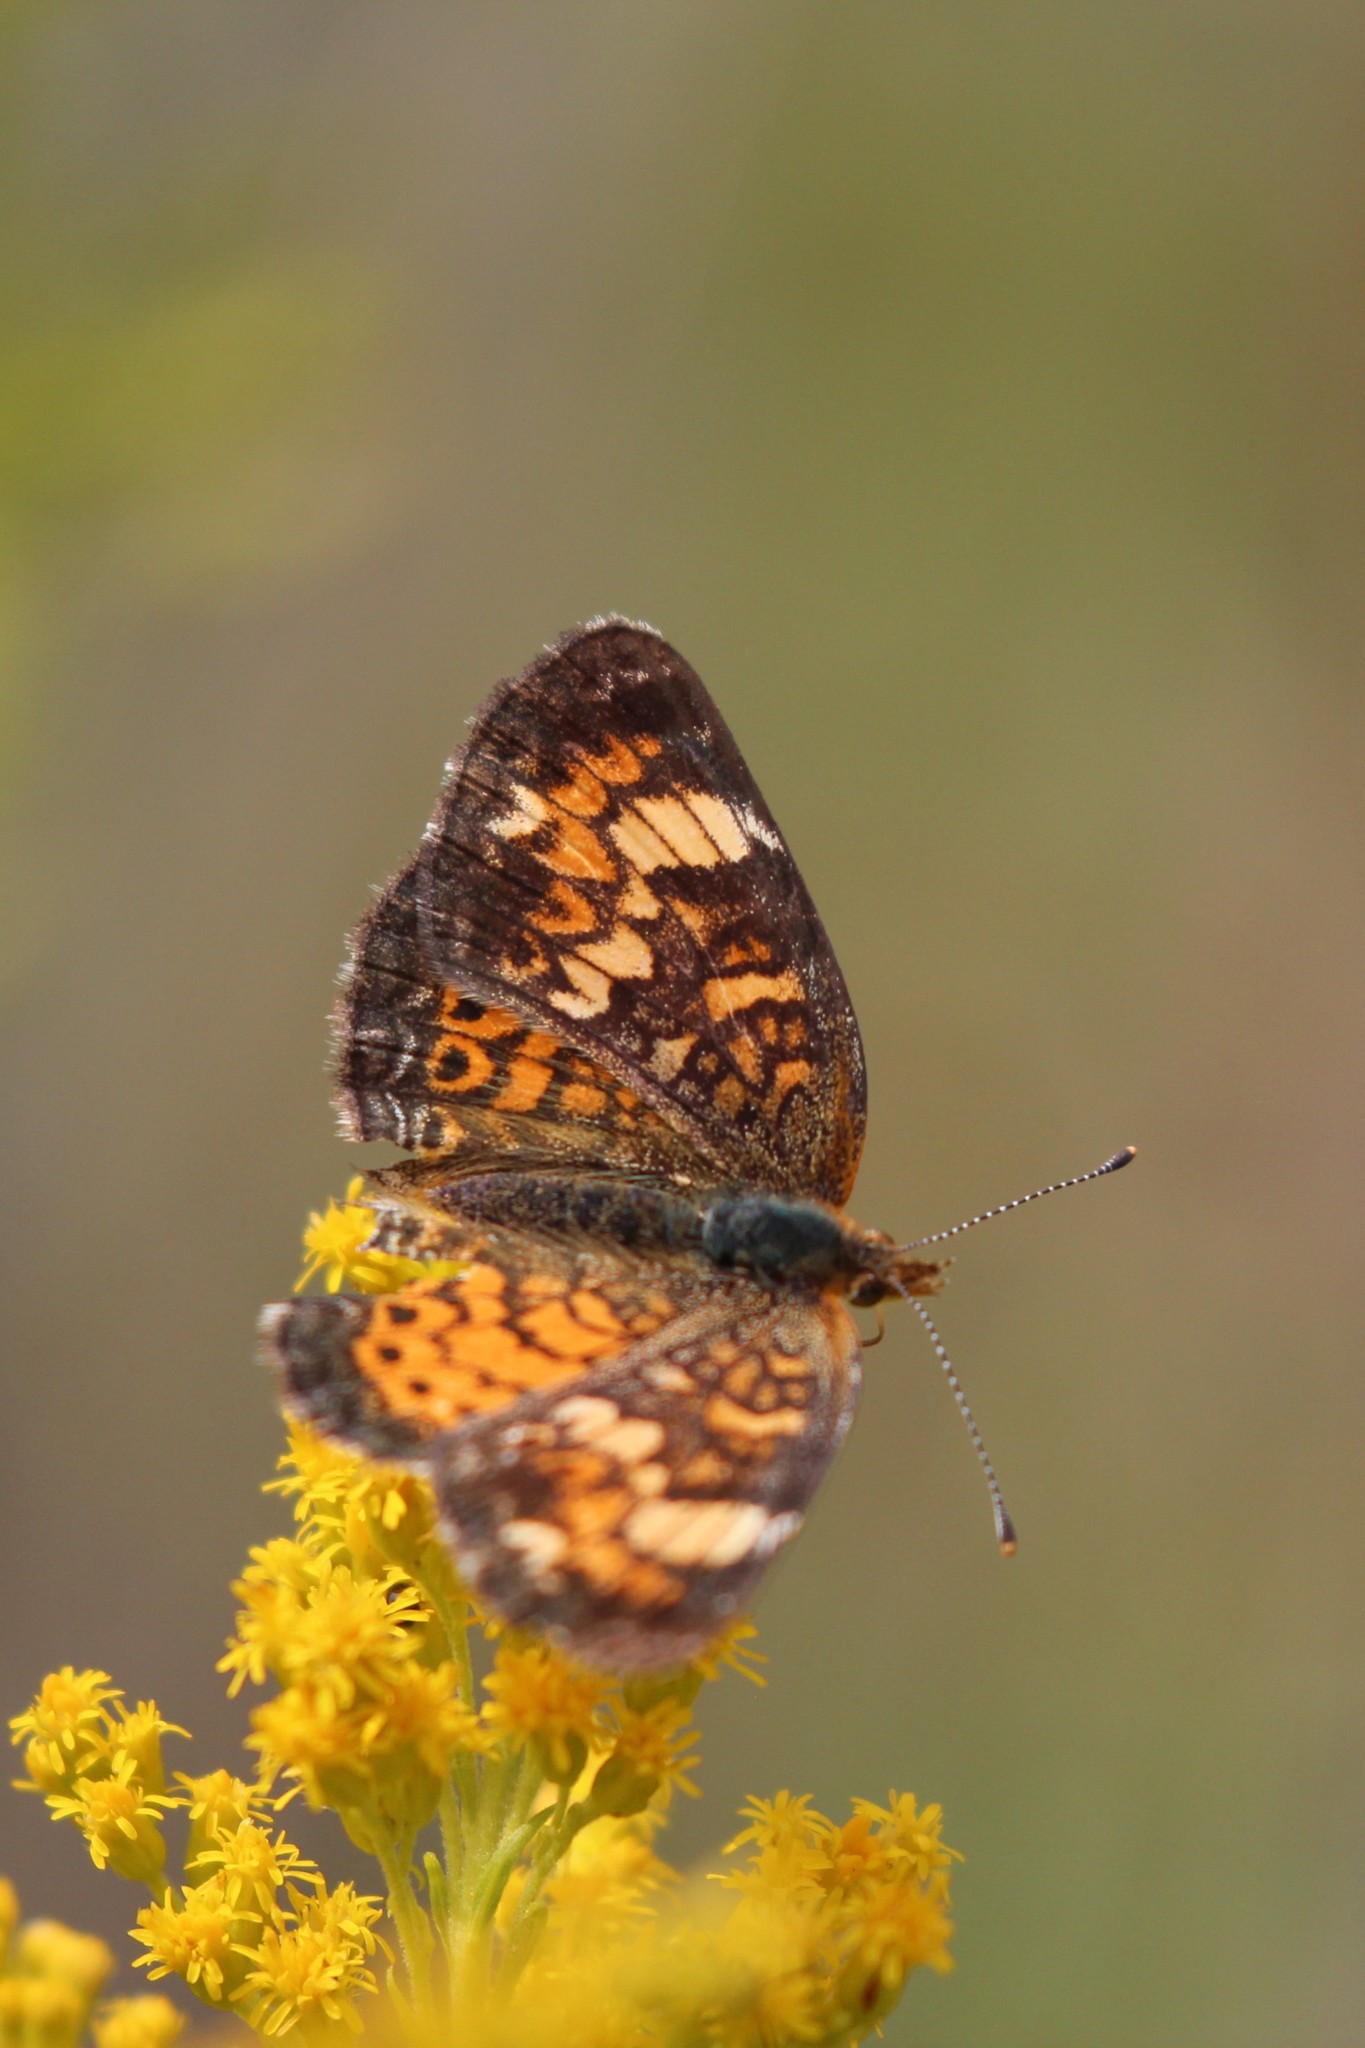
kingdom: Animalia
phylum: Arthropoda
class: Insecta
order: Lepidoptera
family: Nymphalidae
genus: Phyciodes
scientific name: Phyciodes tharos
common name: Pearl crescent
